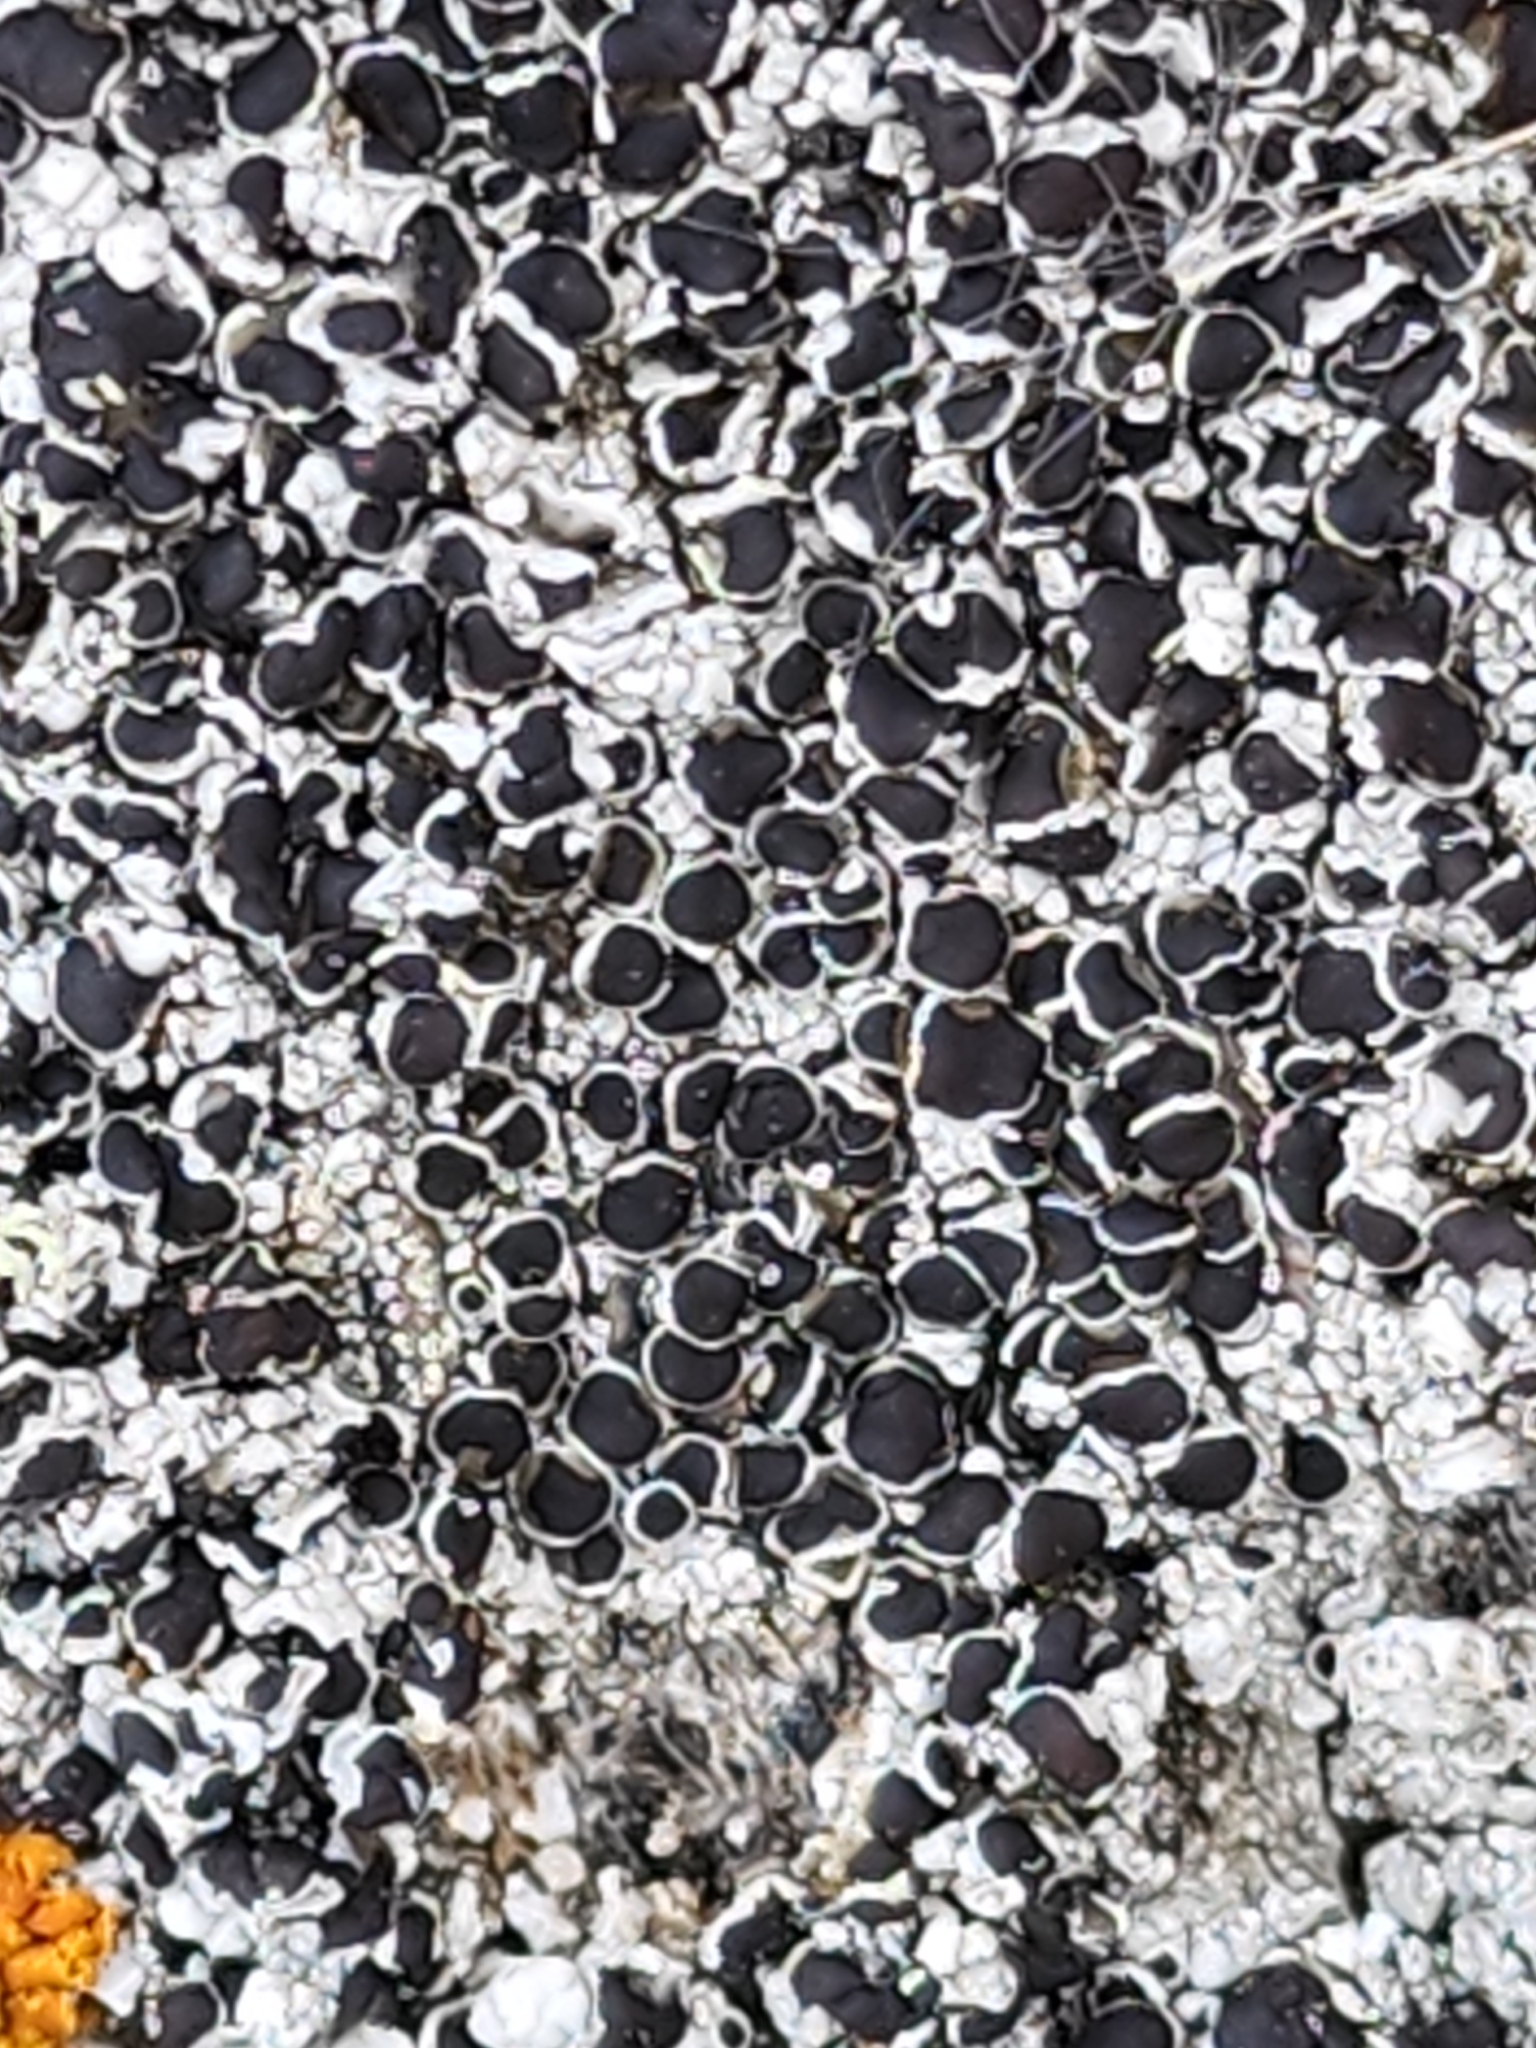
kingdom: Fungi
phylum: Ascomycota
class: Lecanoromycetes
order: Lecanorales
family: Tephromelataceae
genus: Tephromela
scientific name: Tephromela atra
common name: Black shields
